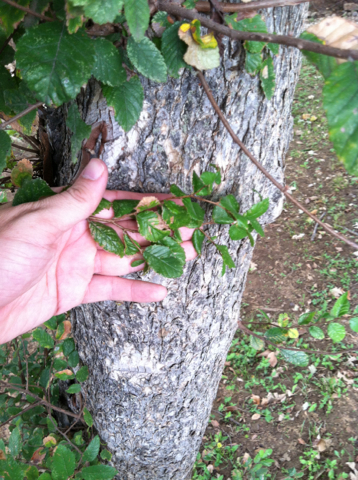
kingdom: Plantae
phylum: Tracheophyta
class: Magnoliopsida
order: Rosales
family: Ulmaceae
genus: Ulmus
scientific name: Ulmus crassifolia
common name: Basket elm
